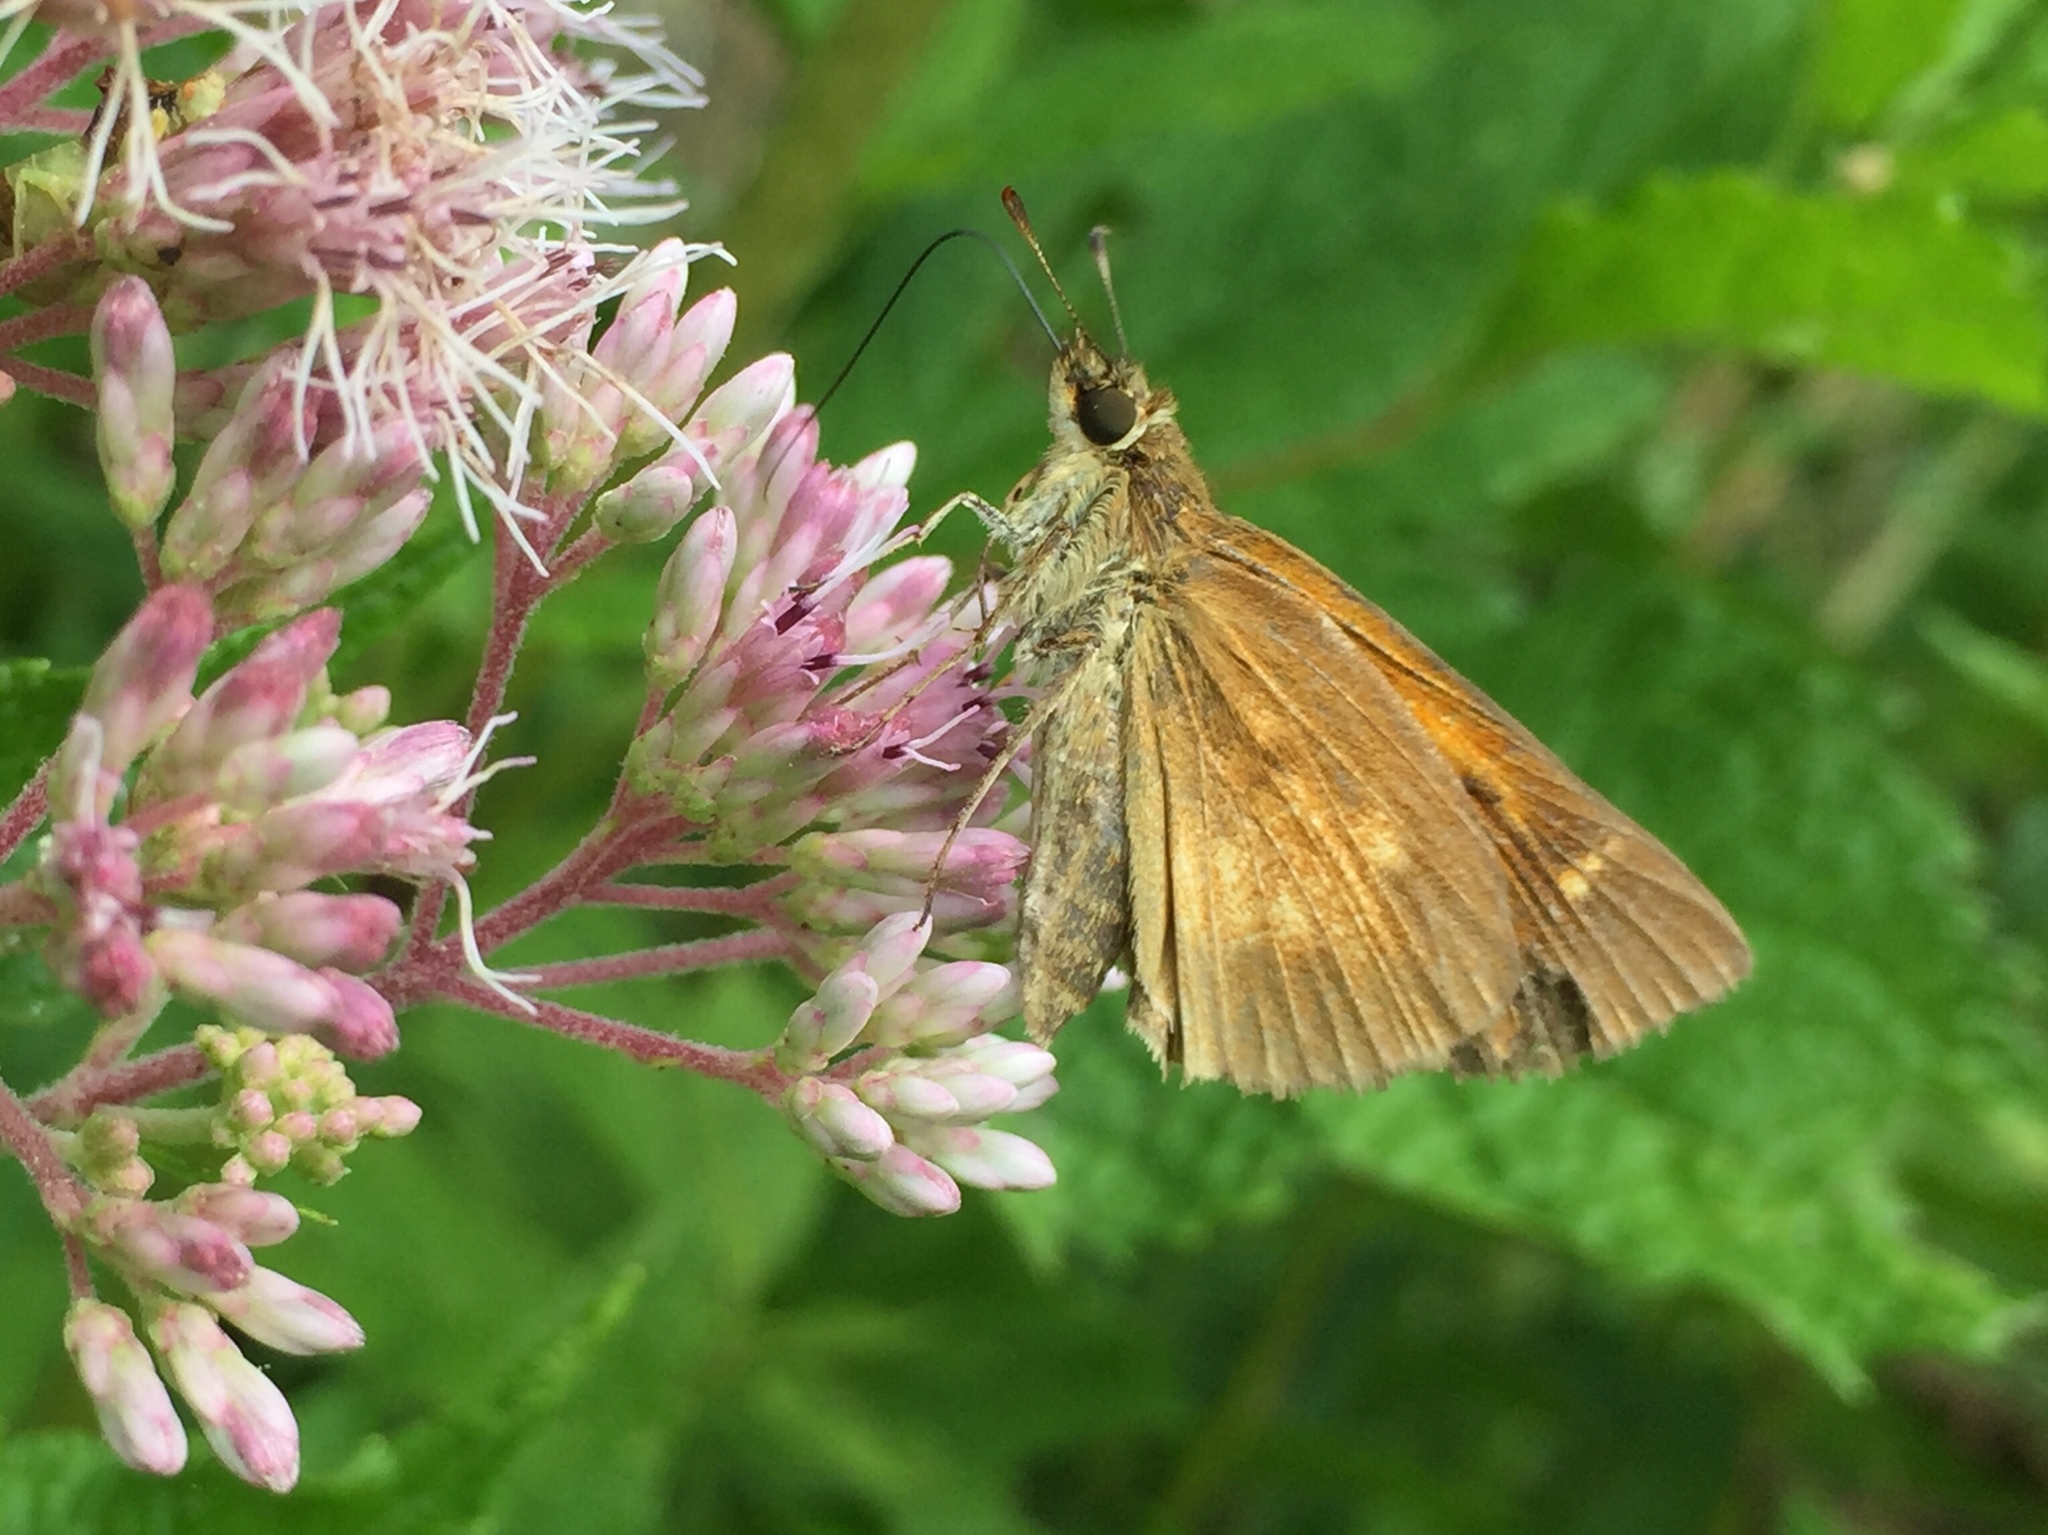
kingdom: Animalia
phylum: Arthropoda
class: Insecta
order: Lepidoptera
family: Hesperiidae
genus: Poanes
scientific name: Poanes viator
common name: Broad-winged skipper
